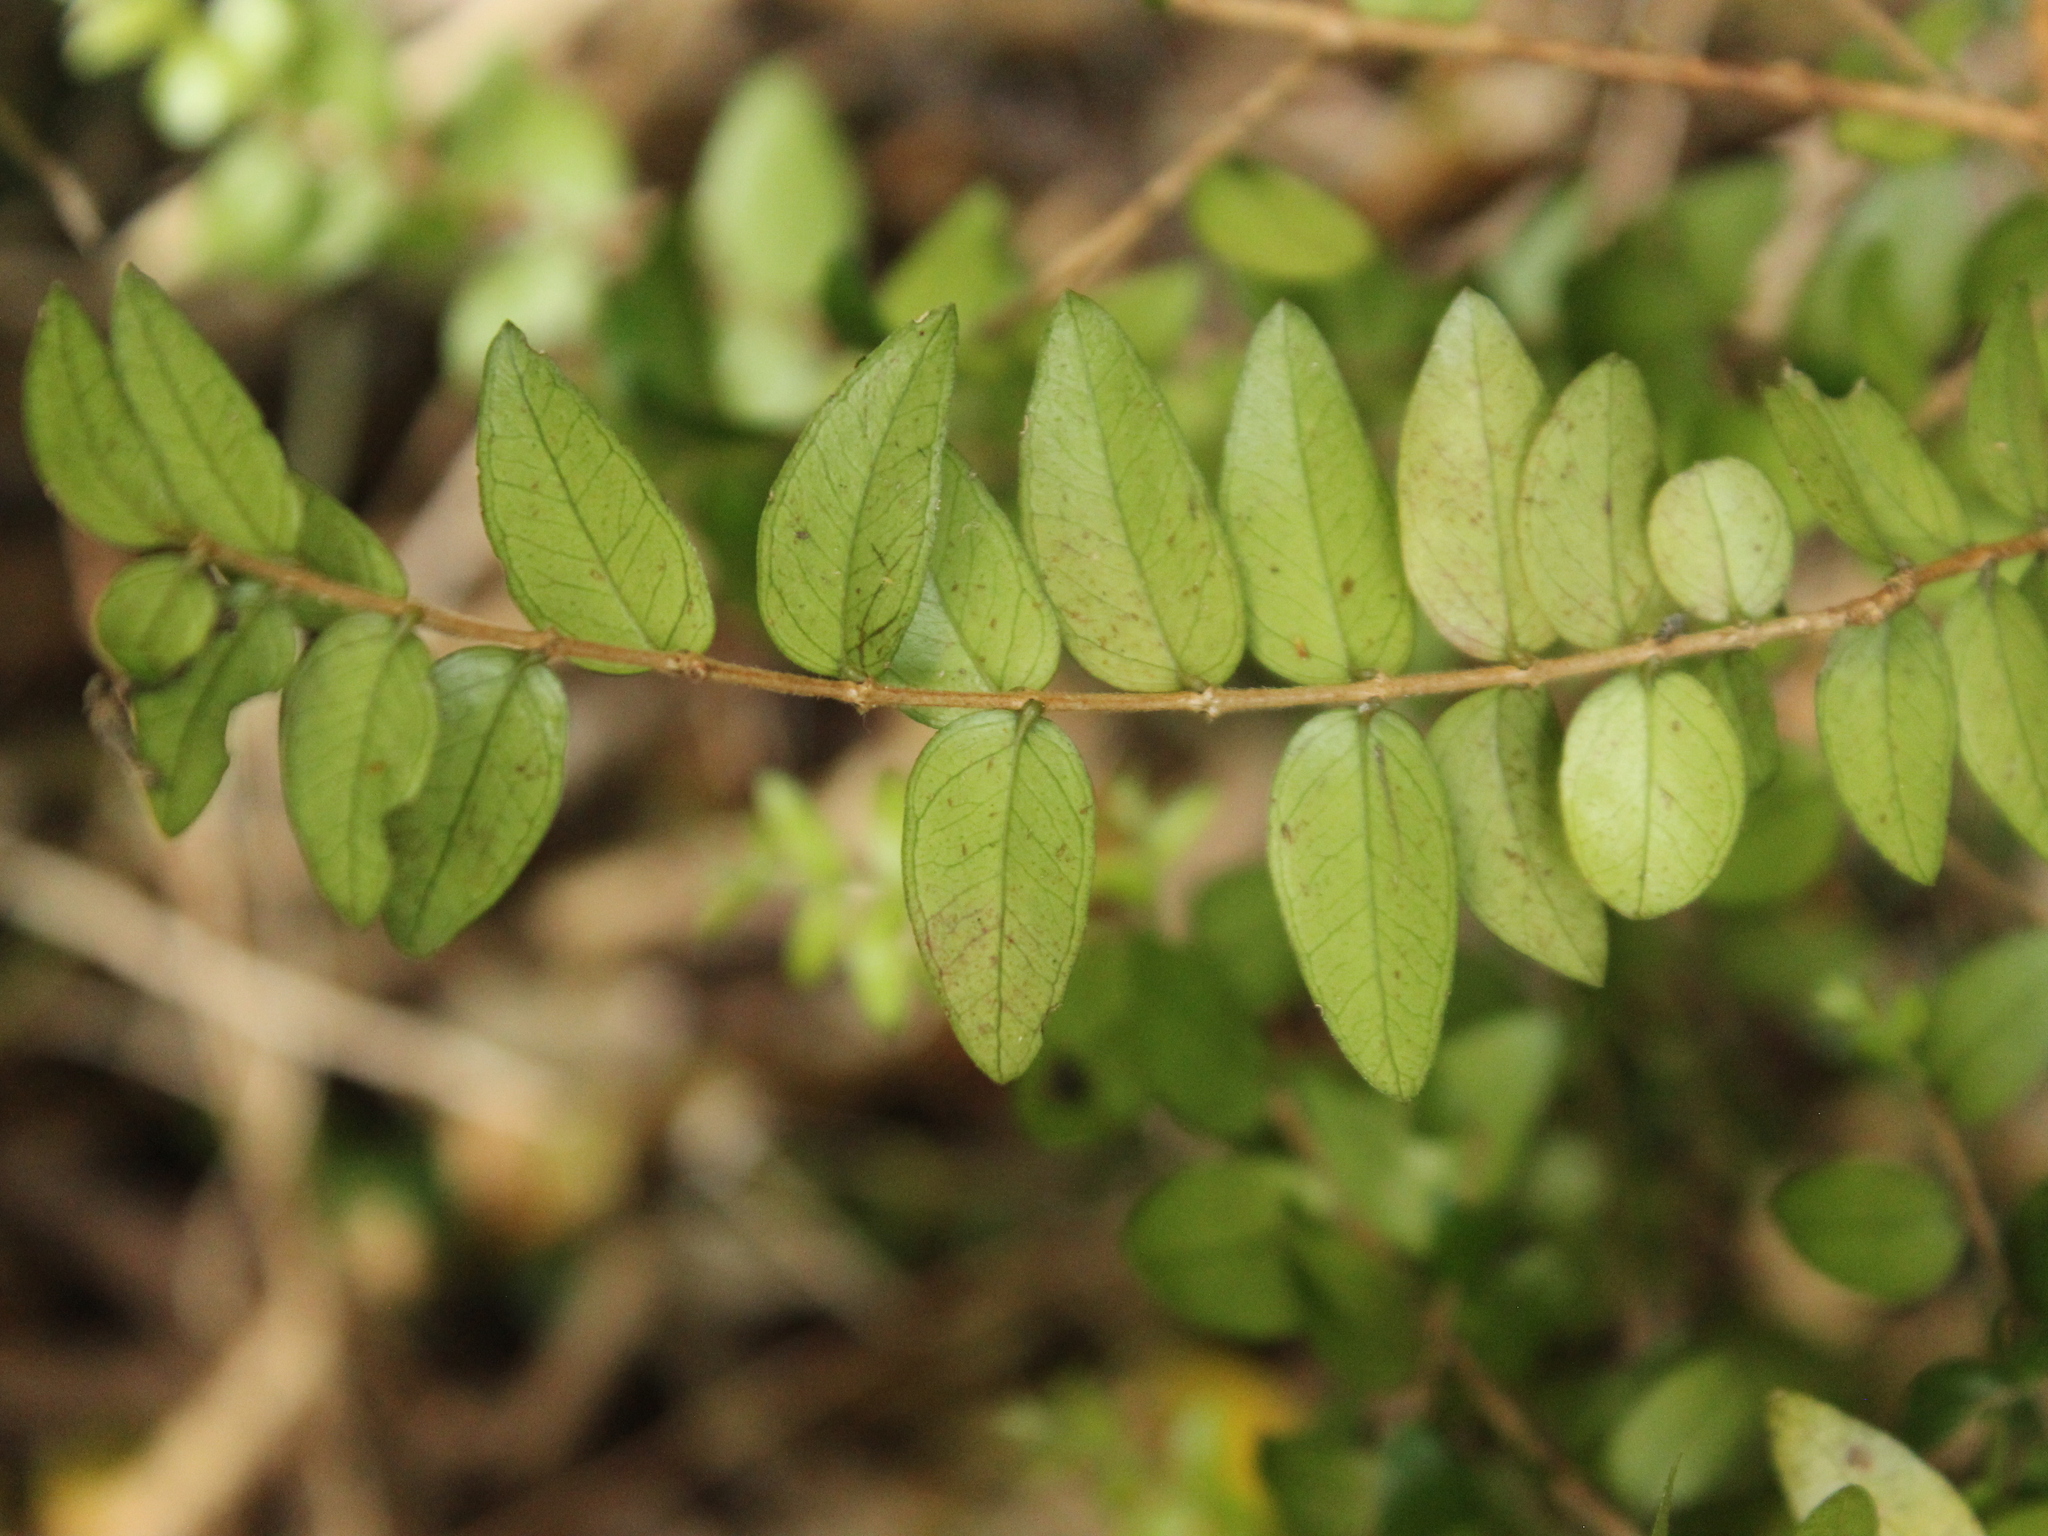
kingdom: Plantae
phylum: Tracheophyta
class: Magnoliopsida
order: Myrtales
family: Myrtaceae
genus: Metrosideros
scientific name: Metrosideros diffusa
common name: Small ratavine
